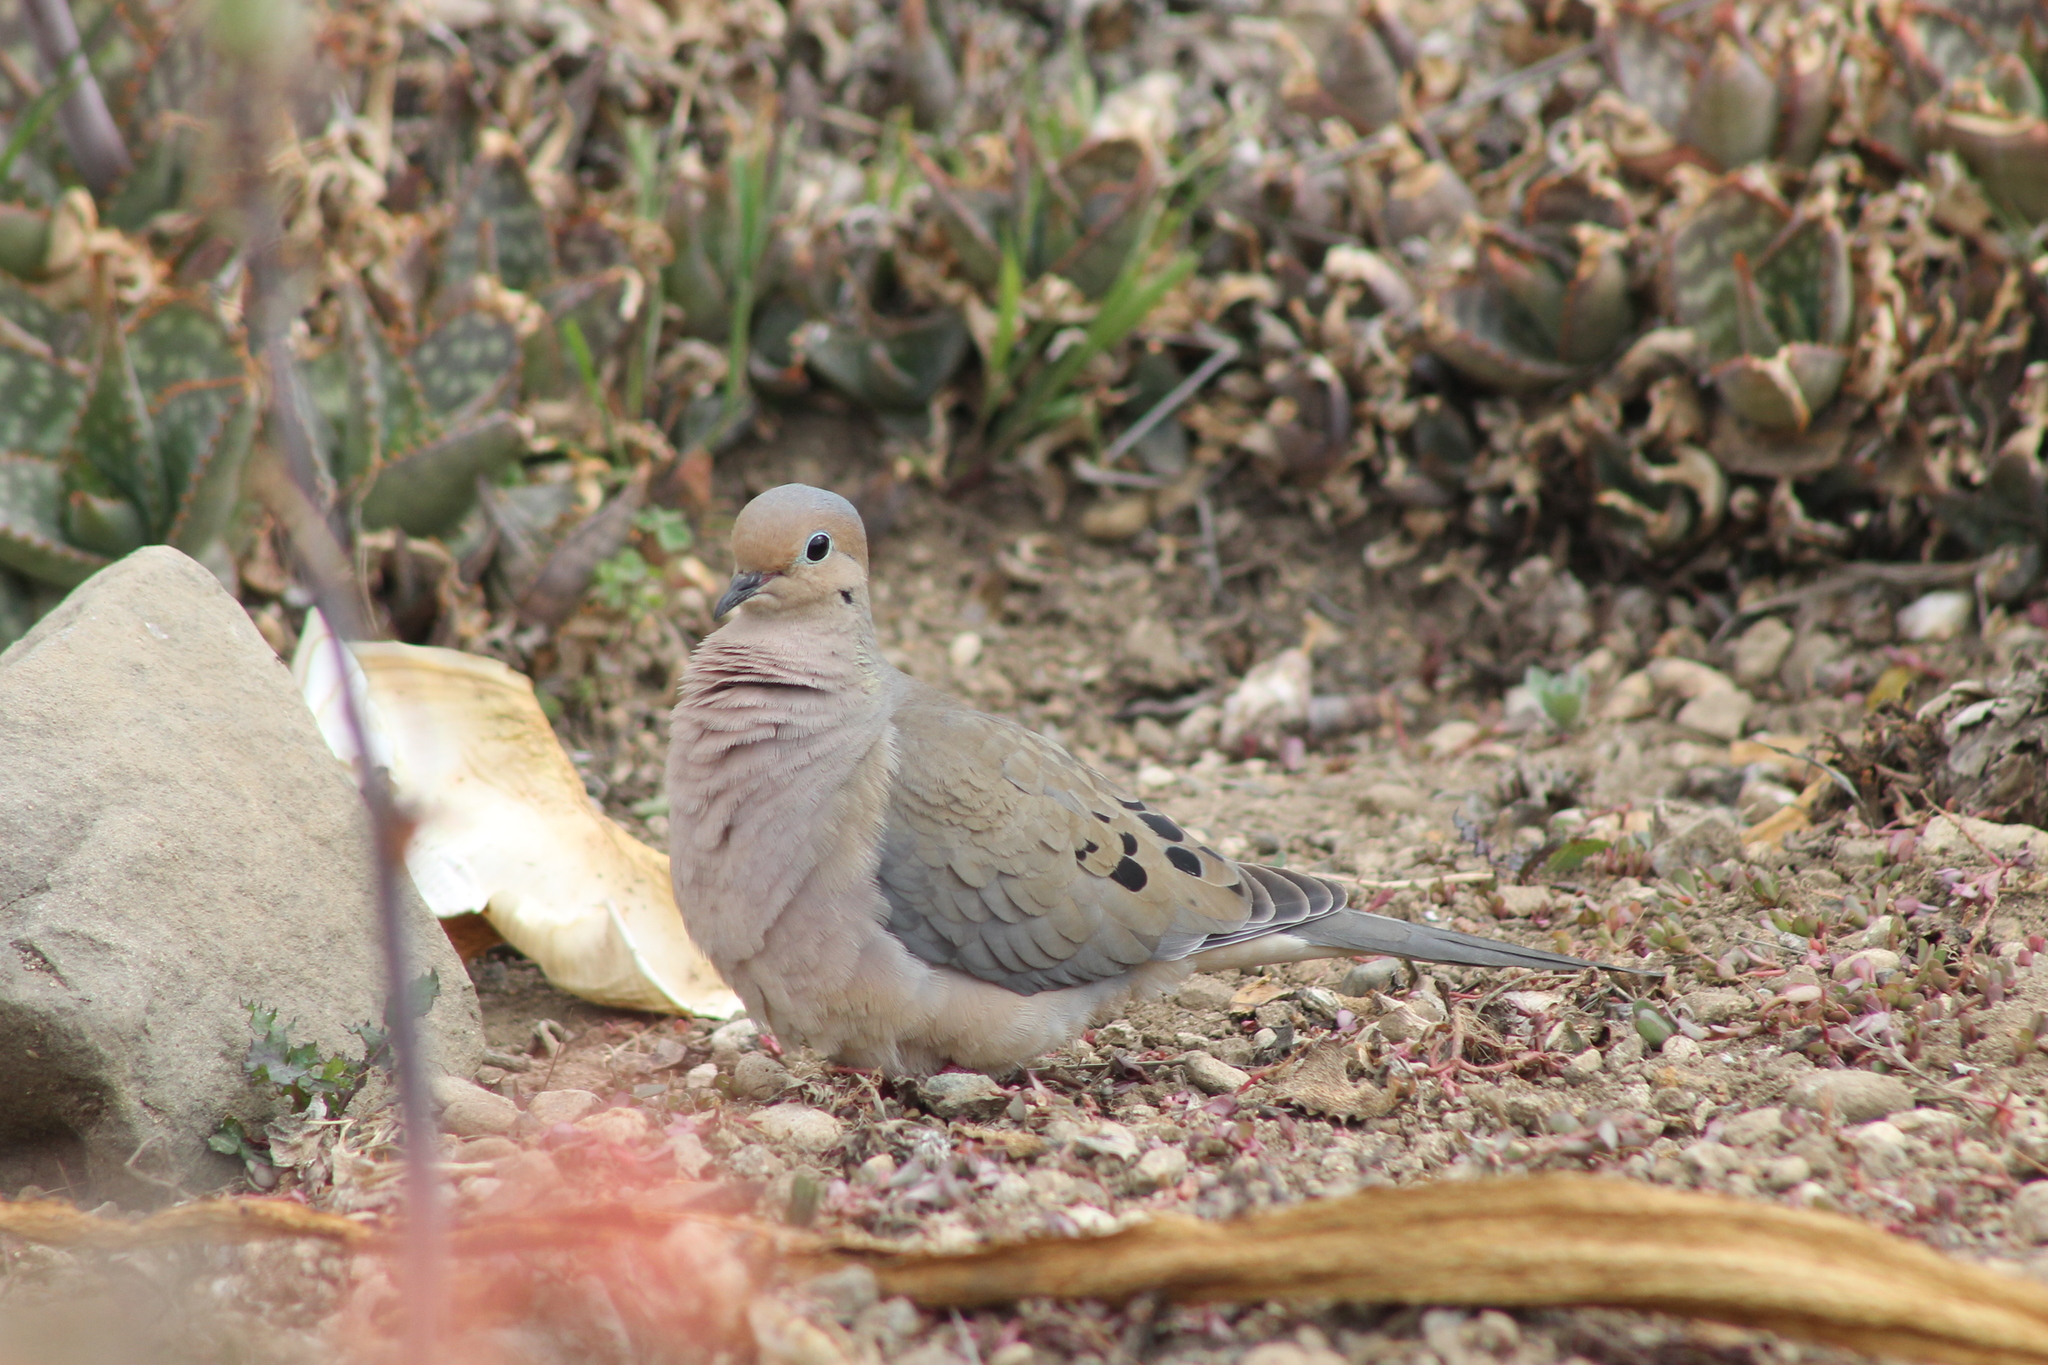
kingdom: Animalia
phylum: Chordata
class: Aves
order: Columbiformes
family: Columbidae
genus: Zenaida
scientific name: Zenaida macroura
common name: Mourning dove
